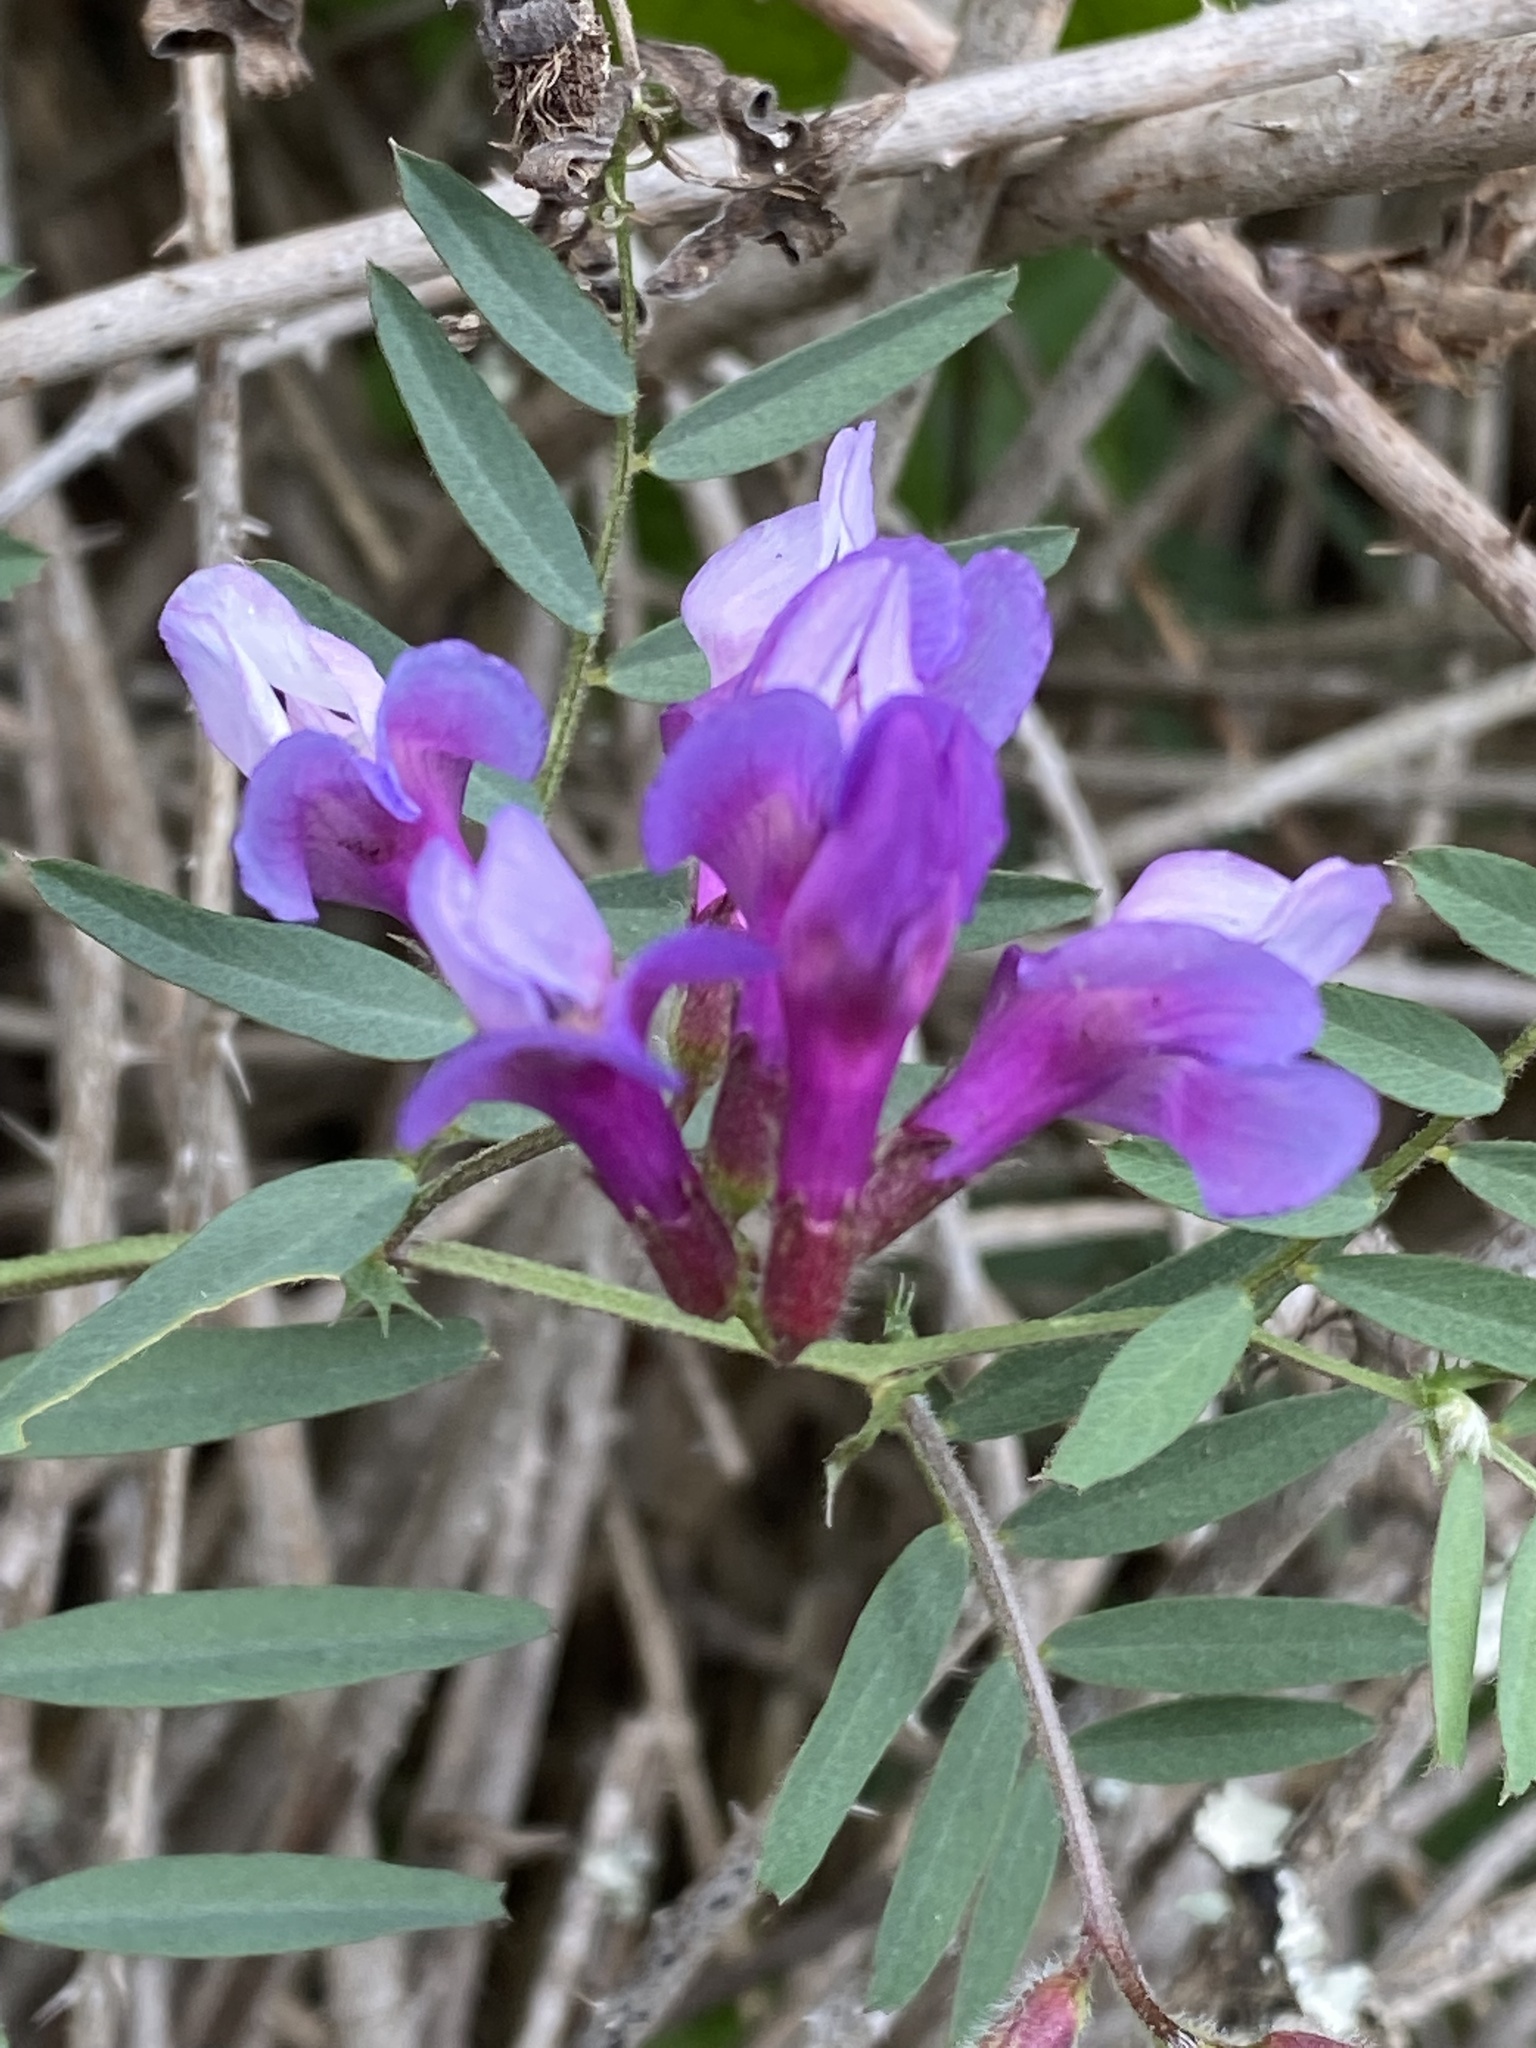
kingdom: Plantae
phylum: Tracheophyta
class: Magnoliopsida
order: Fabales
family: Fabaceae
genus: Vicia
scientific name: Vicia americana
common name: American vetch
